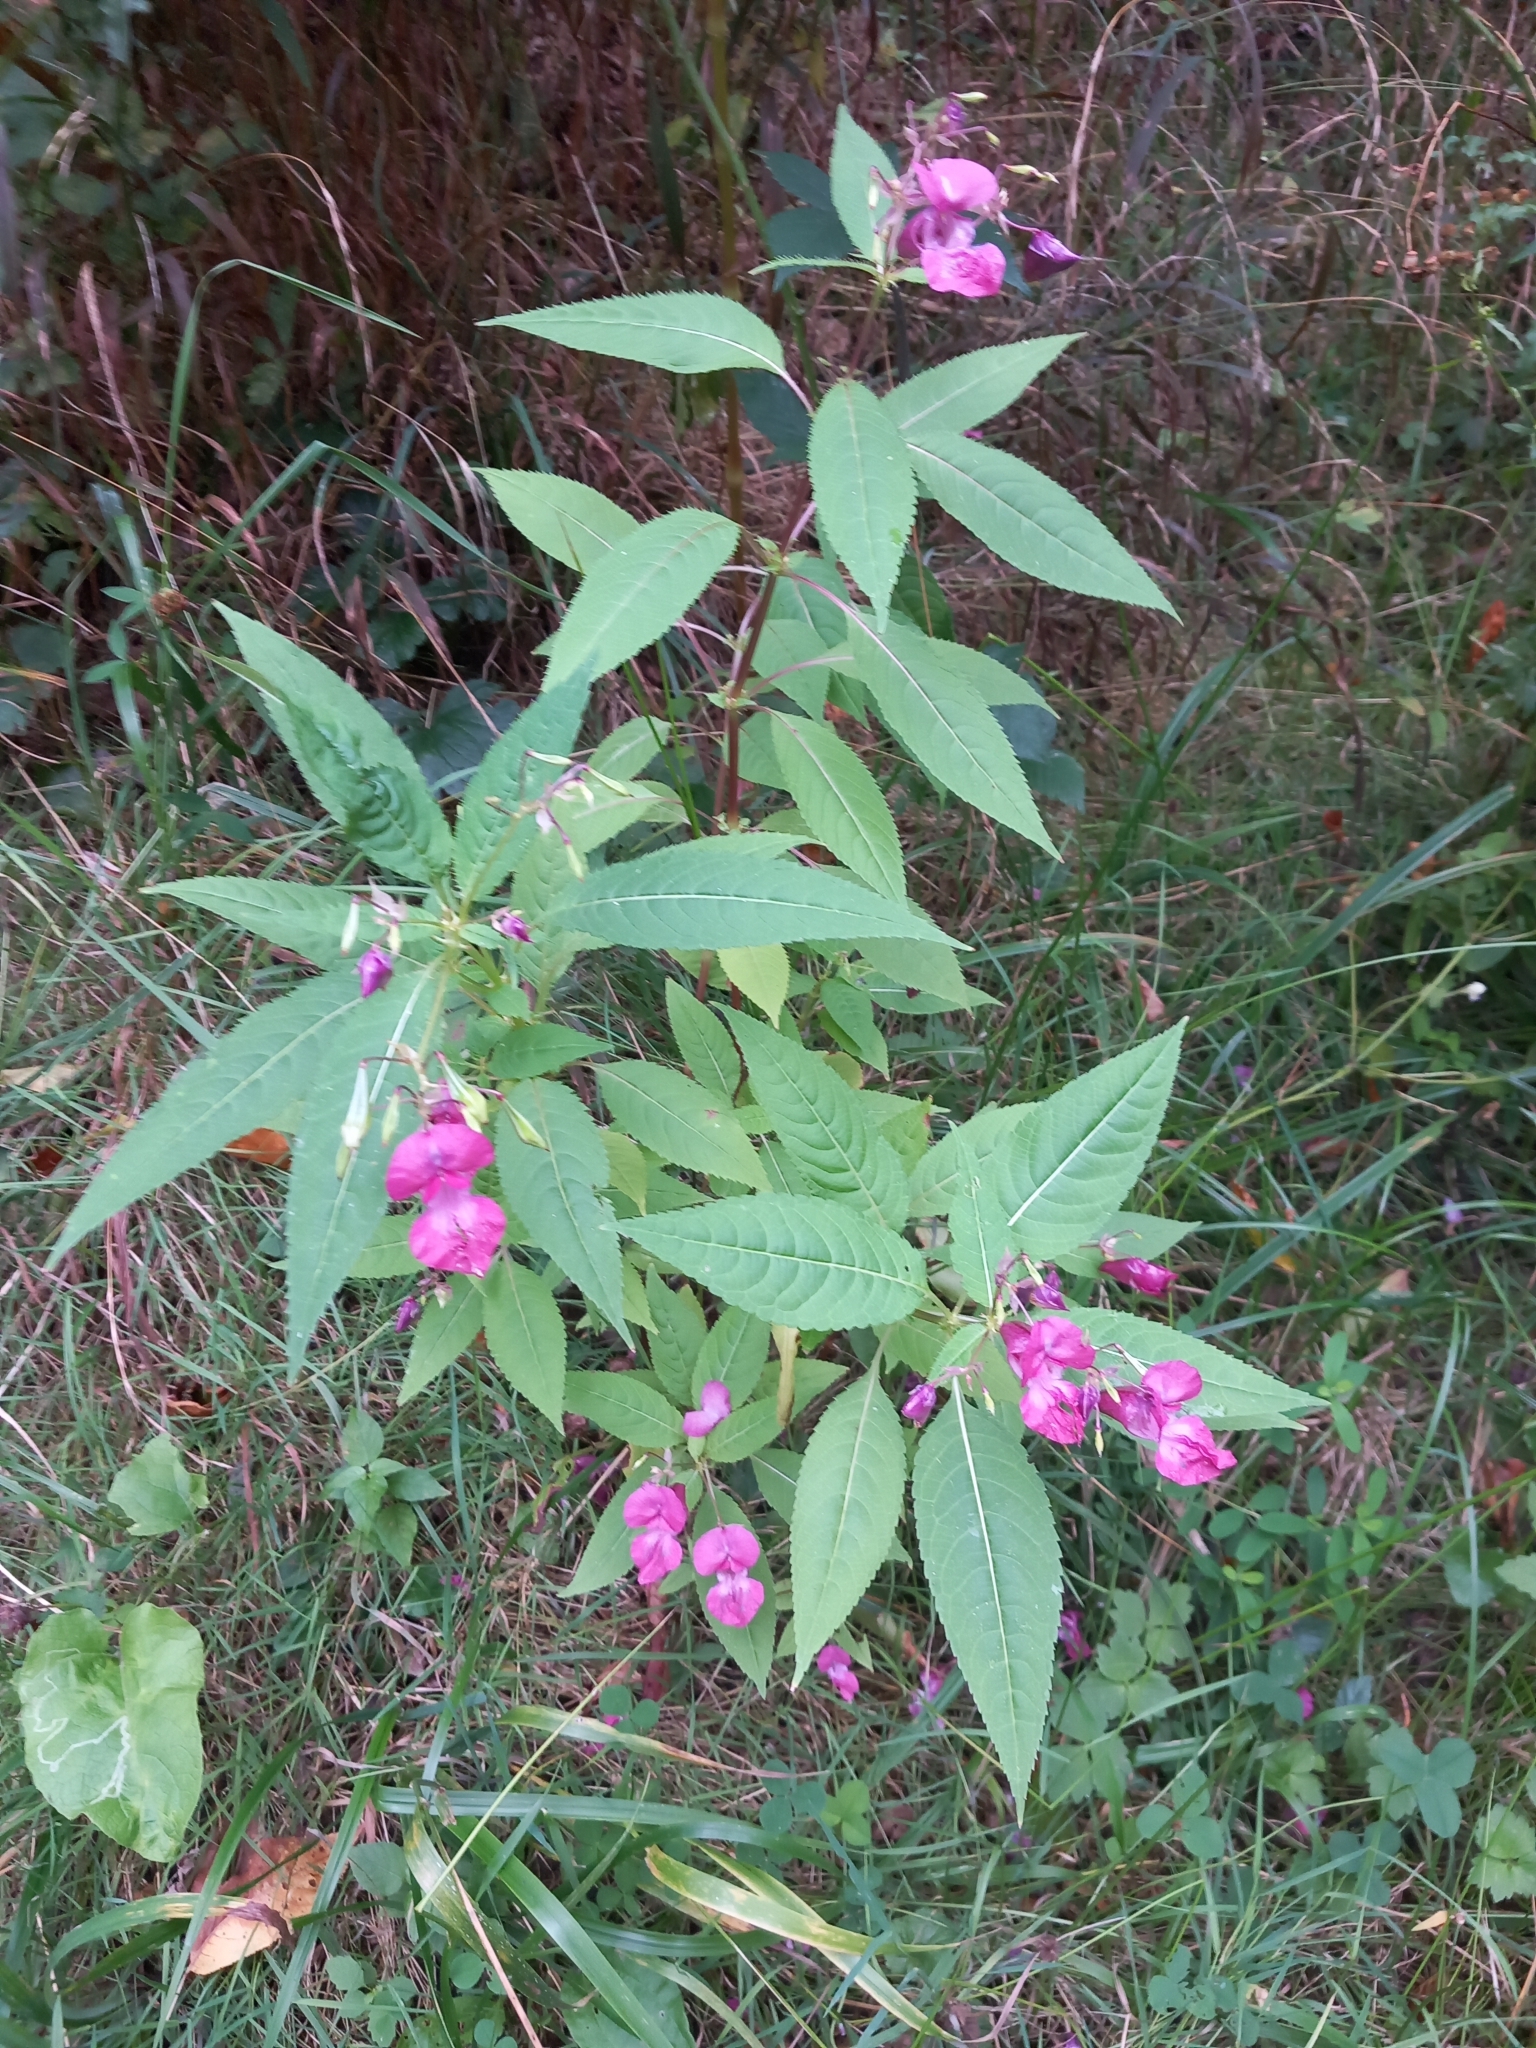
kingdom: Plantae
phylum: Tracheophyta
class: Magnoliopsida
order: Ericales
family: Balsaminaceae
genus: Impatiens
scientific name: Impatiens glandulifera
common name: Himalayan balsam
